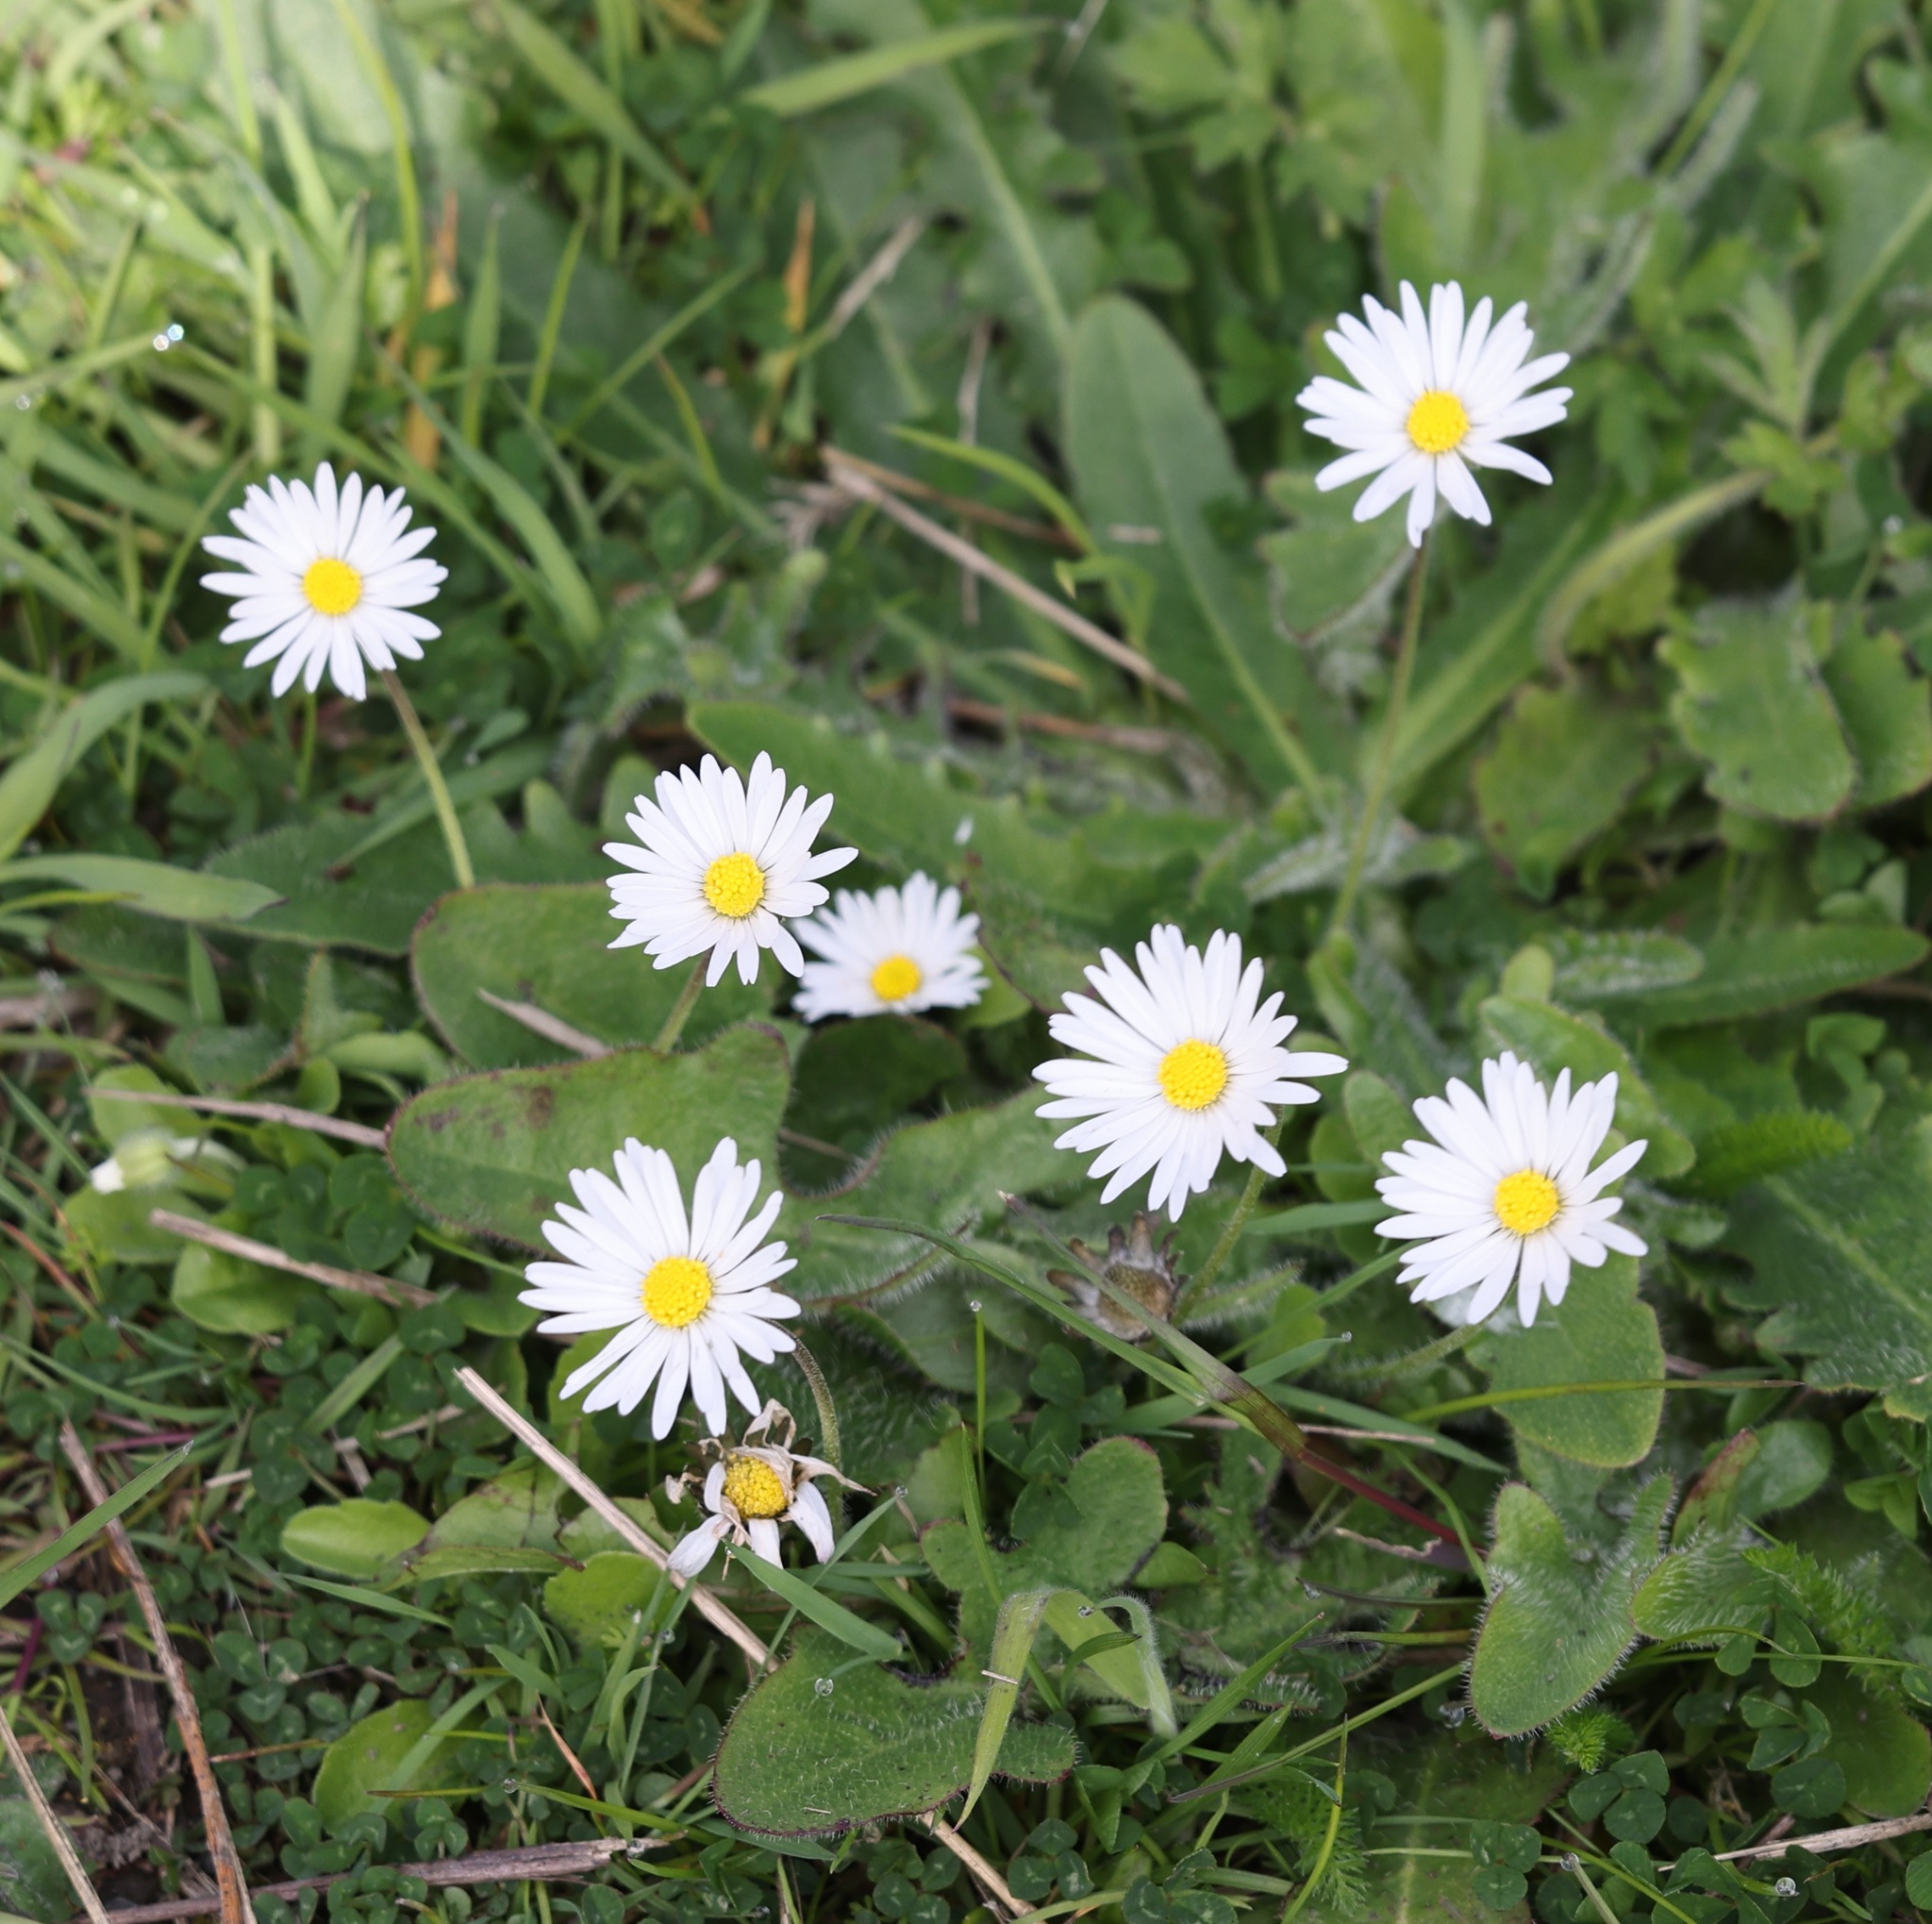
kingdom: Plantae
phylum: Tracheophyta
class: Magnoliopsida
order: Asterales
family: Asteraceae
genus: Bellis
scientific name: Bellis perennis
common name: Lawndaisy
